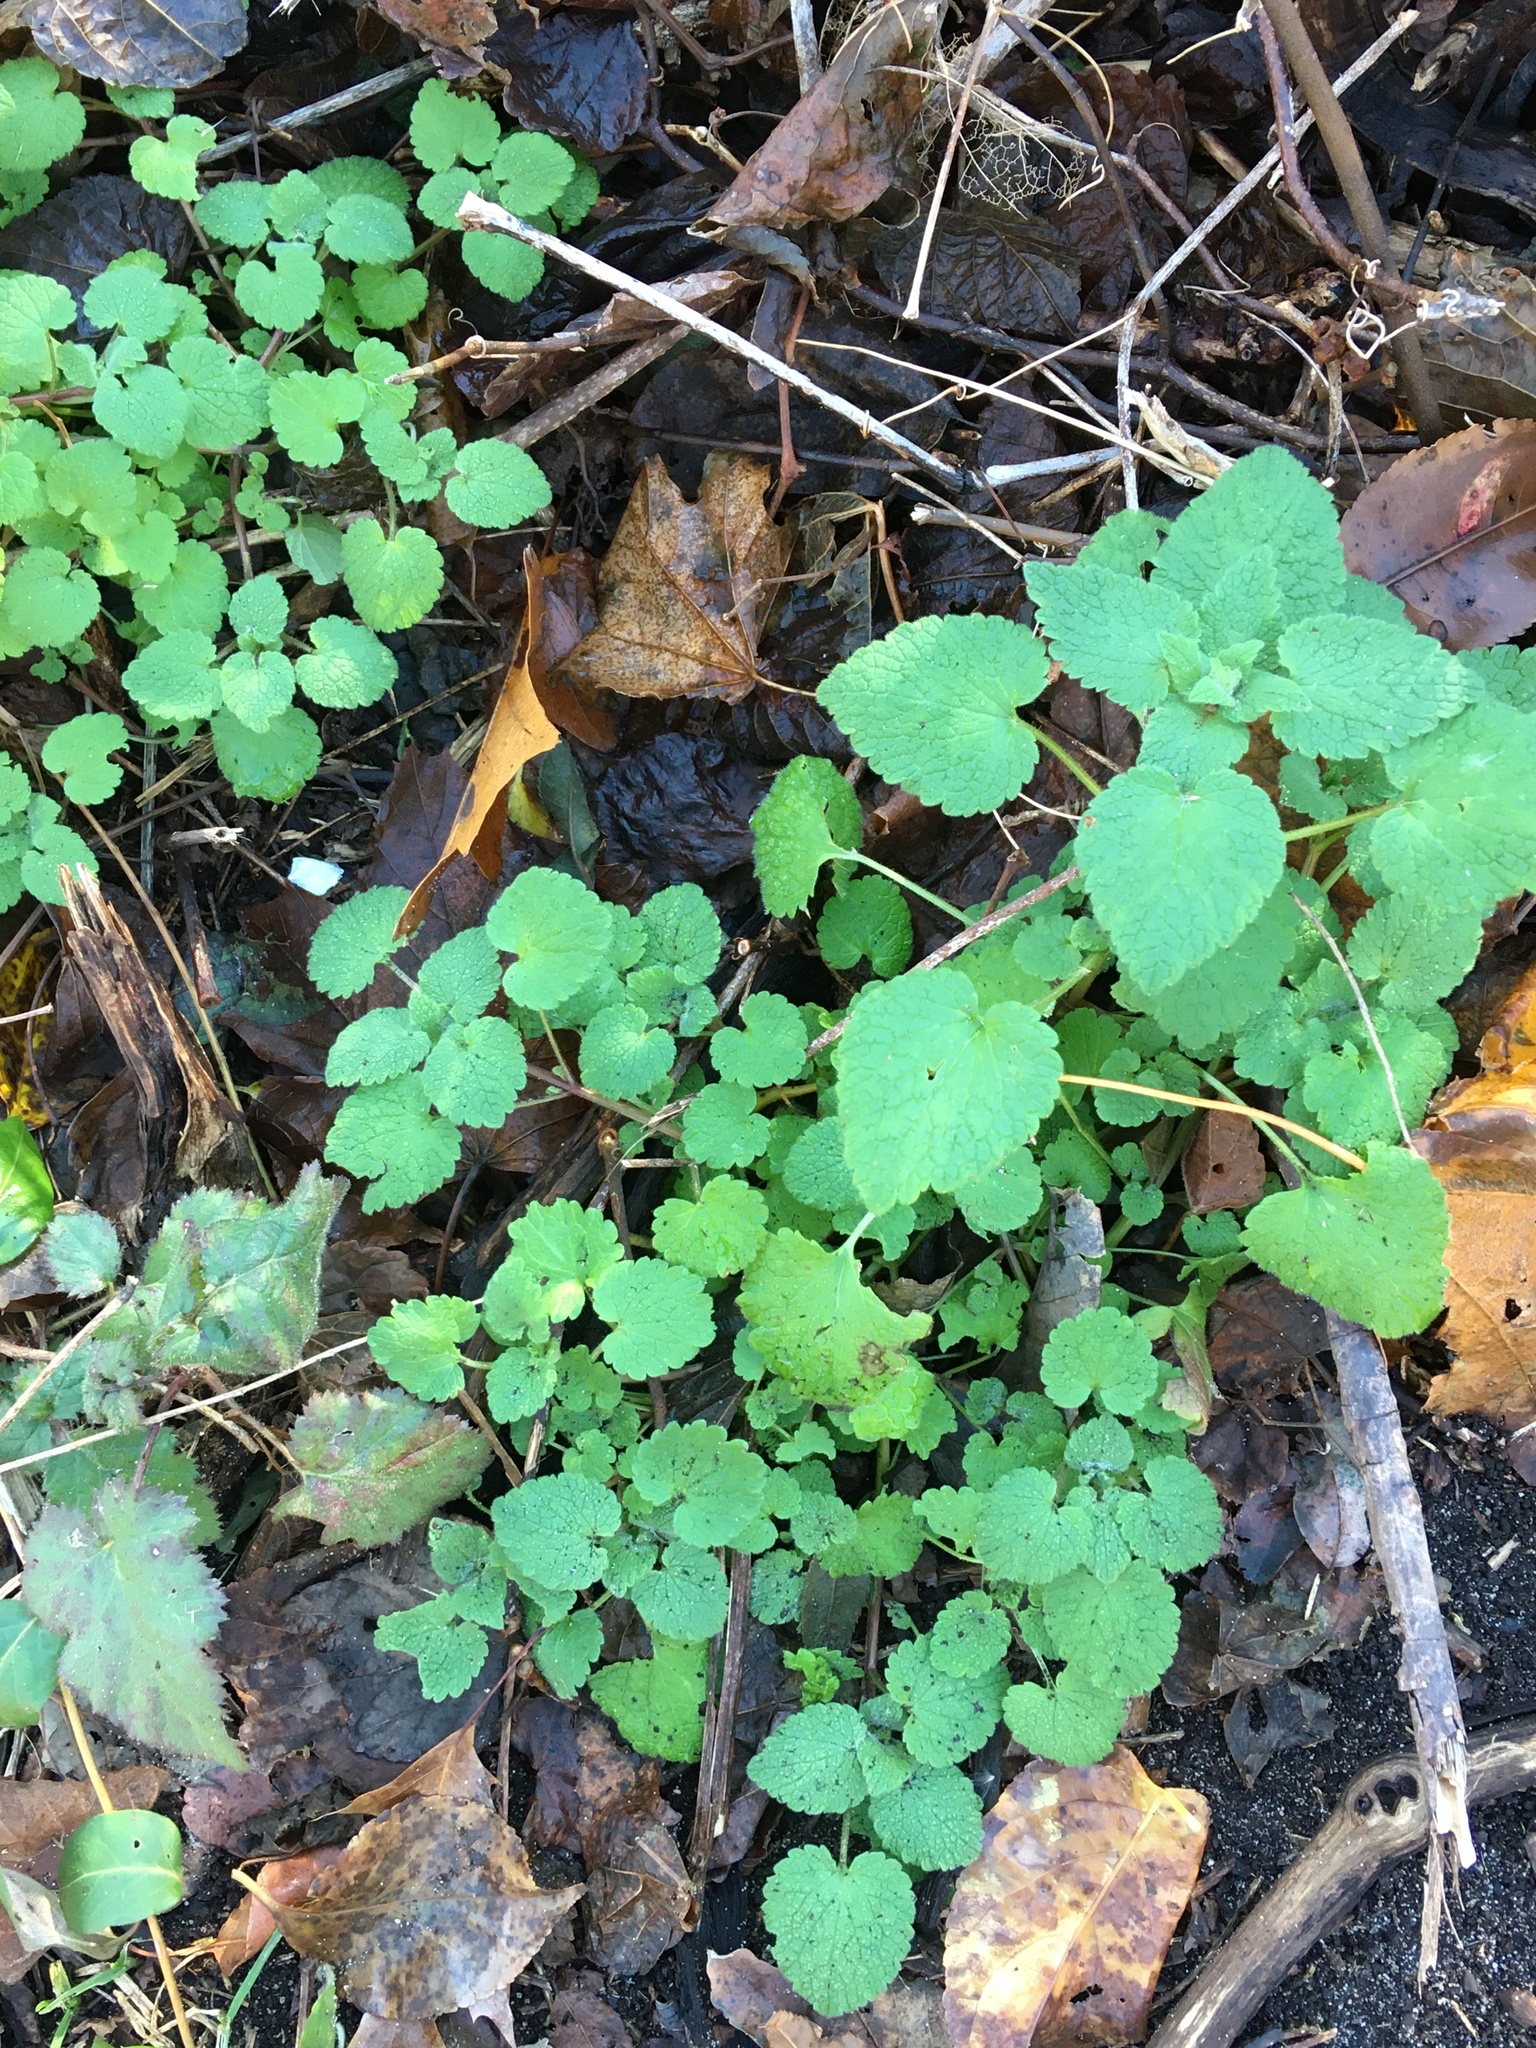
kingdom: Plantae
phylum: Tracheophyta
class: Magnoliopsida
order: Lamiales
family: Lamiaceae
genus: Lamium
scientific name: Lamium purpureum
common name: Red dead-nettle
